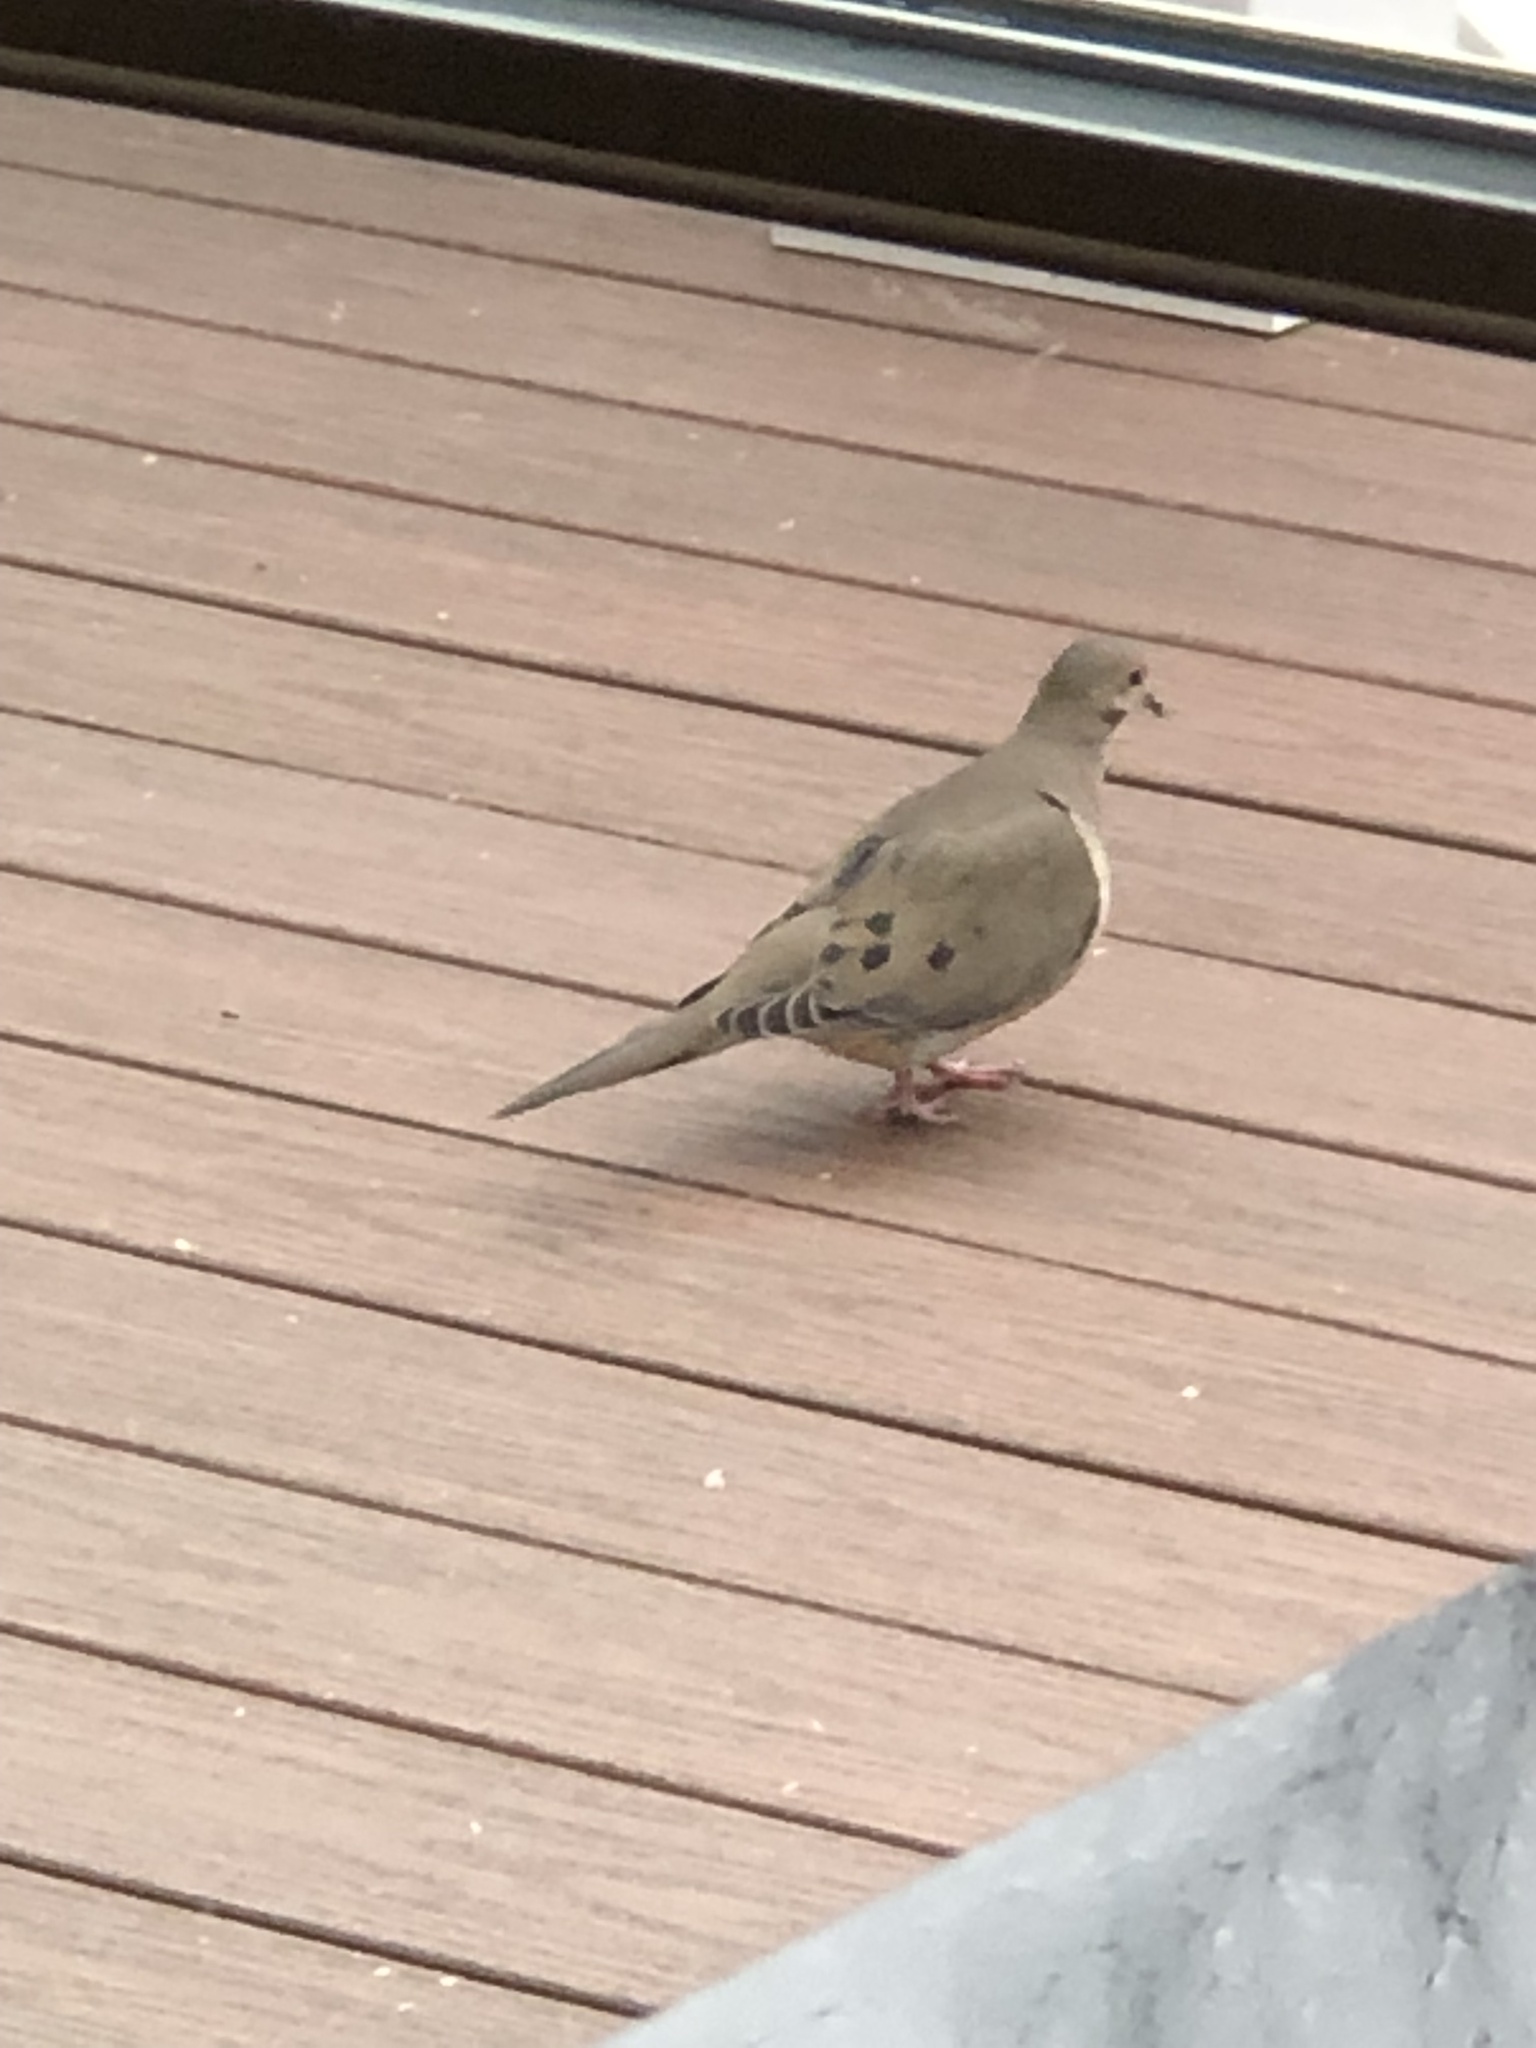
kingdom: Animalia
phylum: Chordata
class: Aves
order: Columbiformes
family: Columbidae
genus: Zenaida
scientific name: Zenaida macroura
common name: Mourning dove
